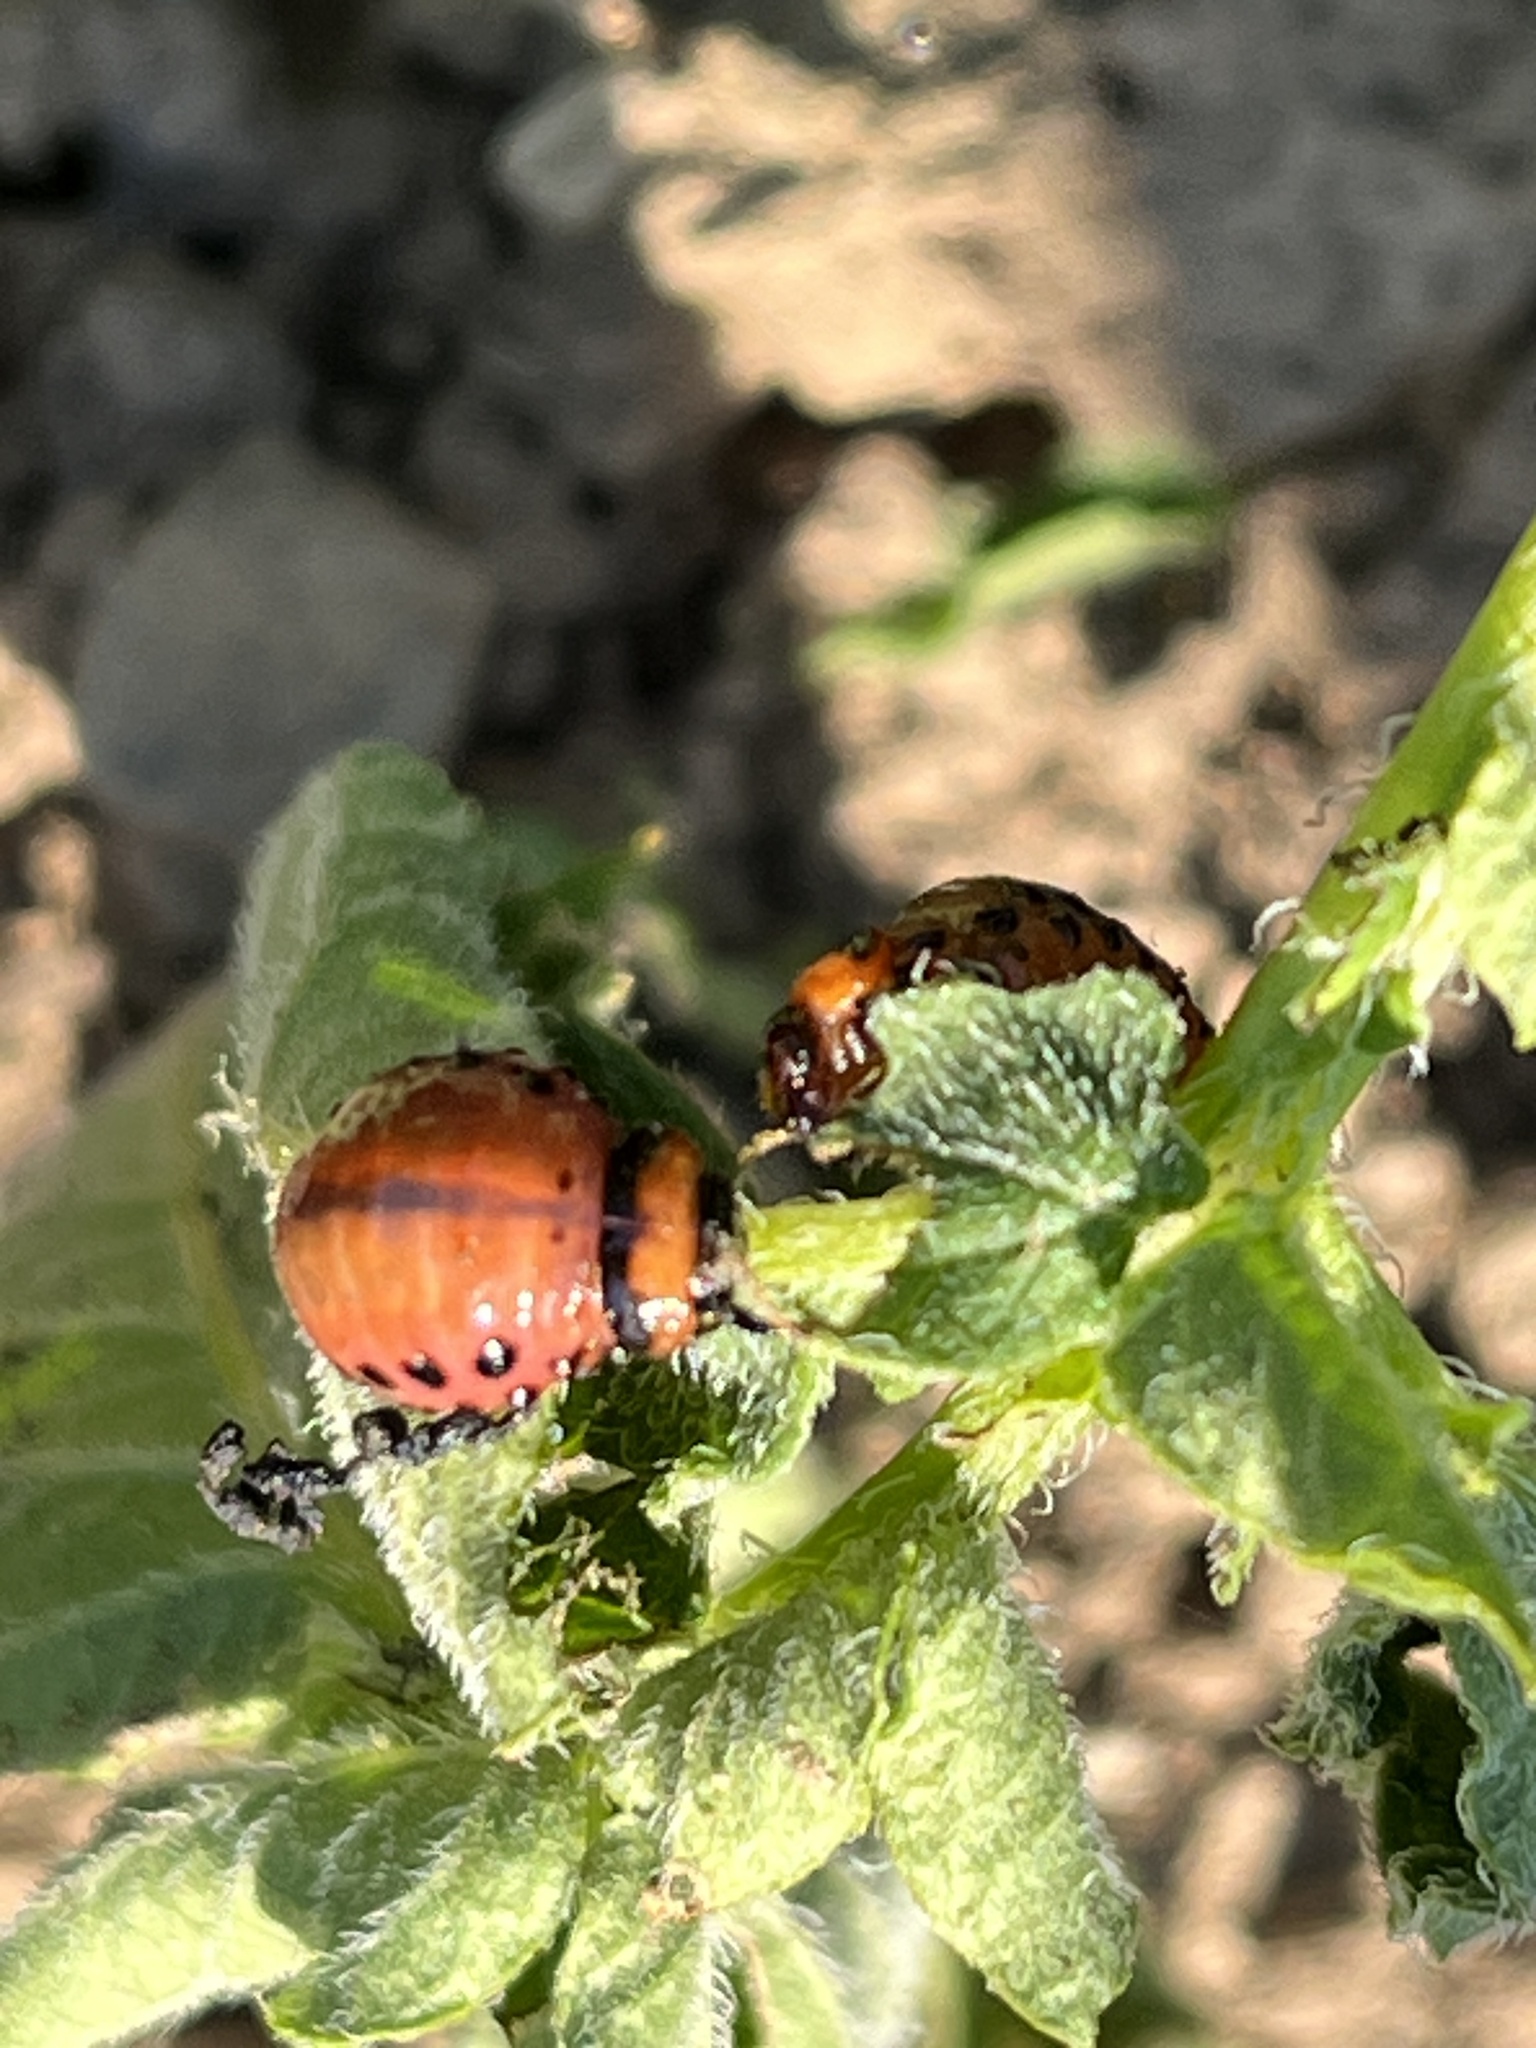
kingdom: Animalia
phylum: Arthropoda
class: Insecta
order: Coleoptera
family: Chrysomelidae
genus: Leptinotarsa
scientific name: Leptinotarsa decemlineata
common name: Colorado potato beetle
